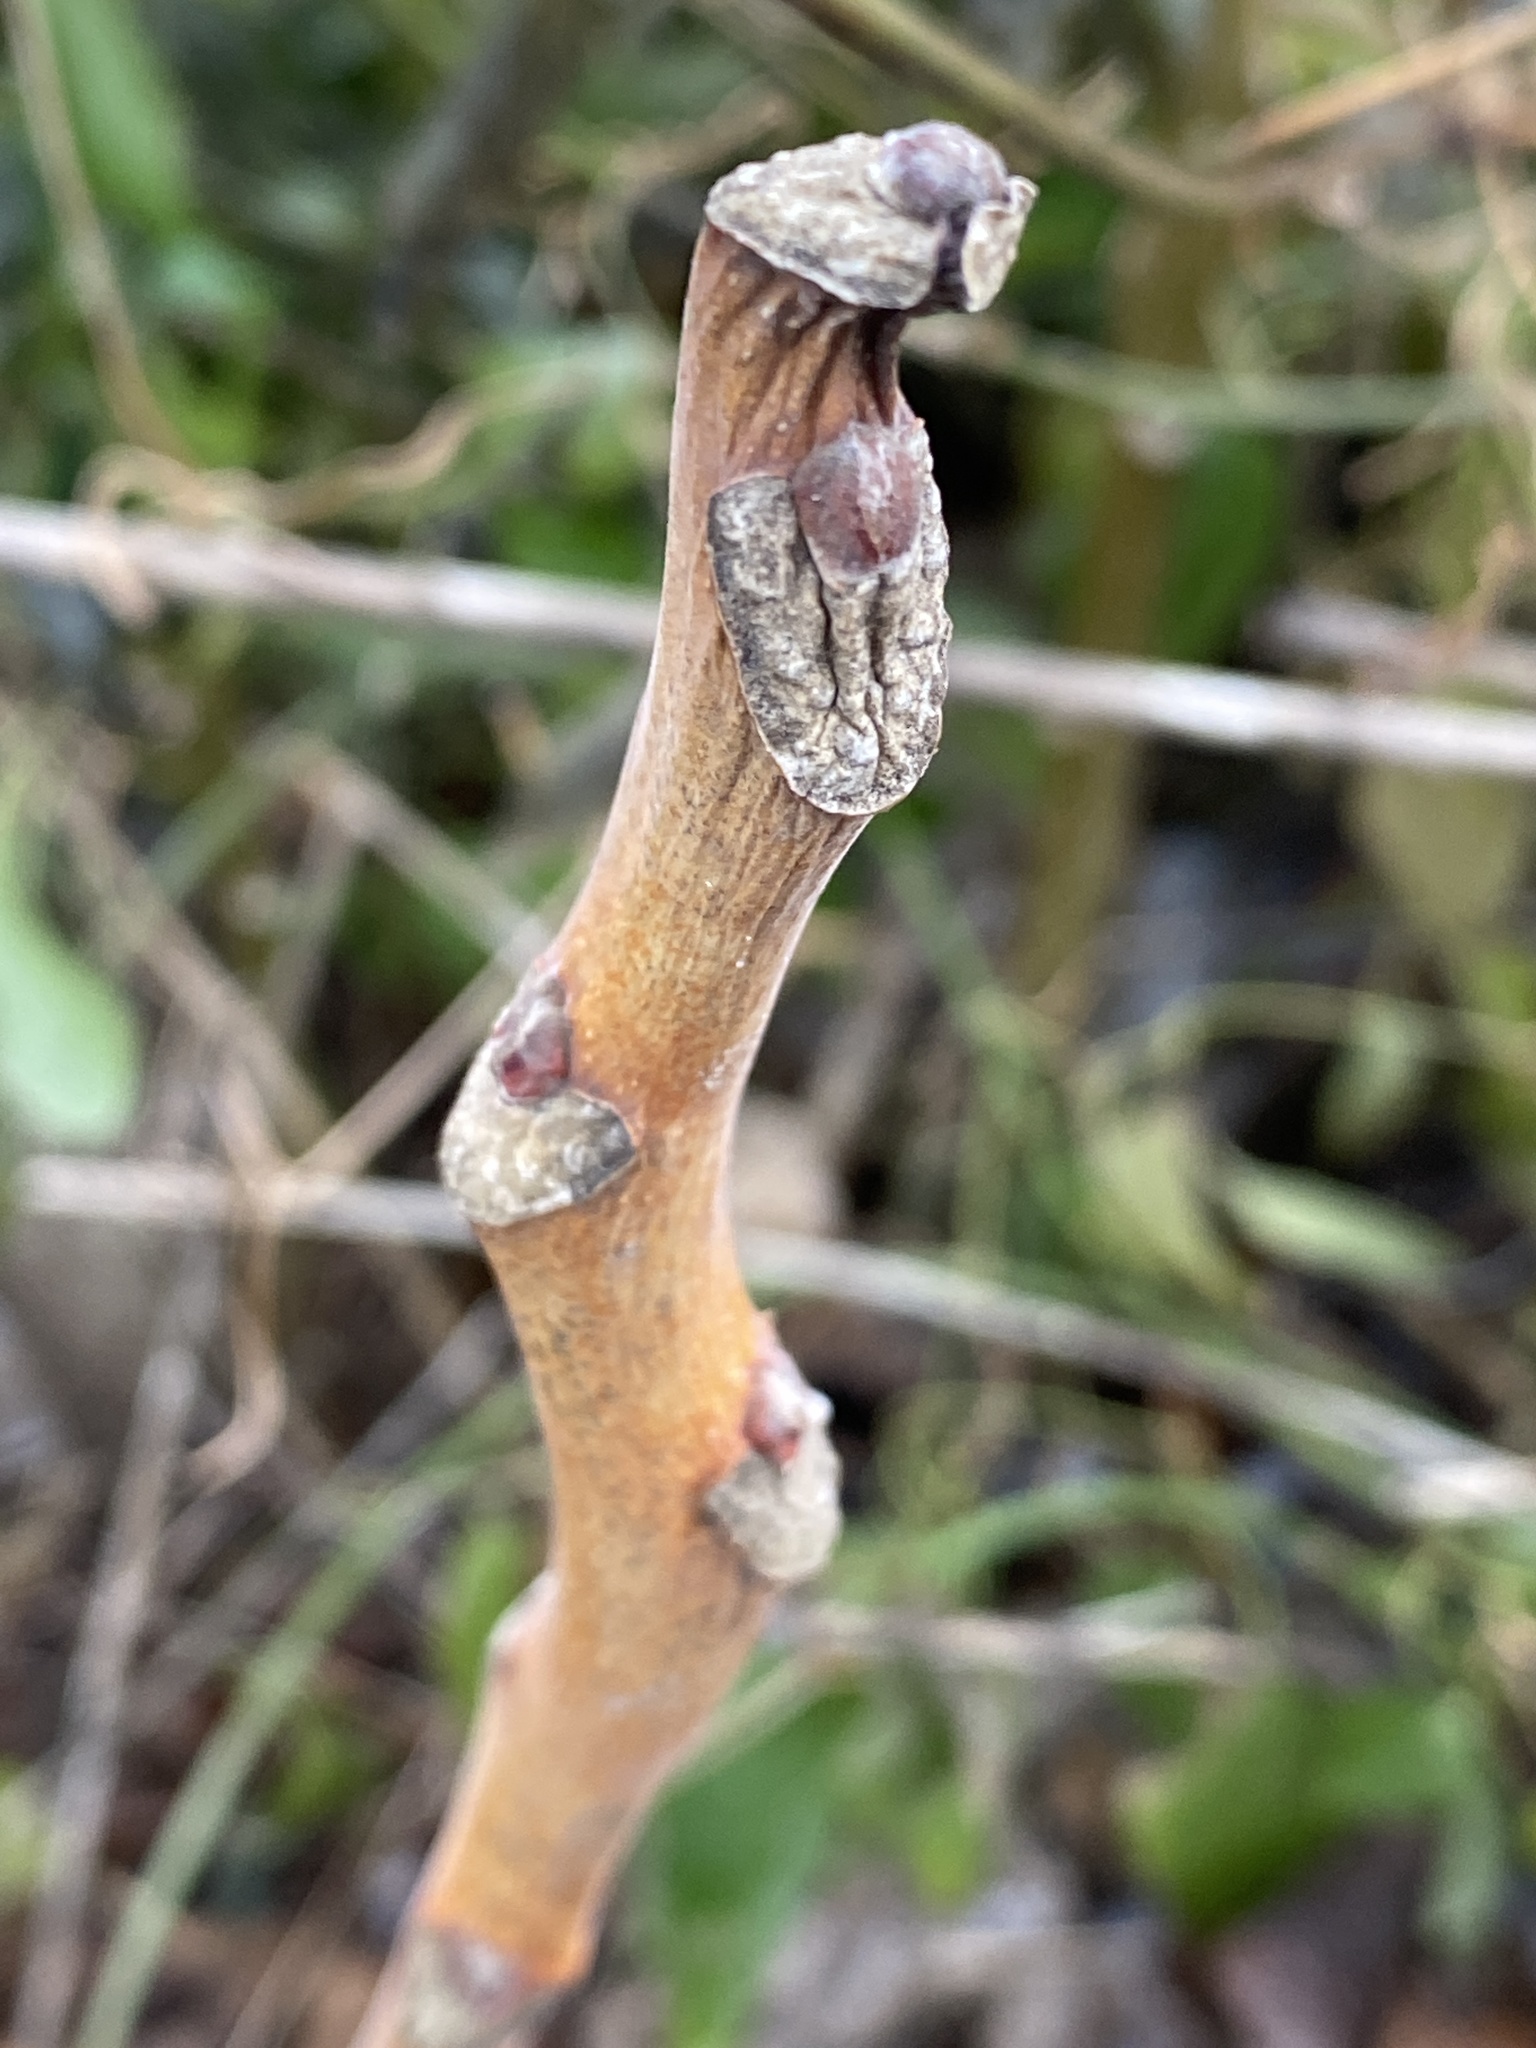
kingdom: Plantae
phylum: Tracheophyta
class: Magnoliopsida
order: Sapindales
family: Simaroubaceae
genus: Ailanthus
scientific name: Ailanthus altissima
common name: Tree-of-heaven
